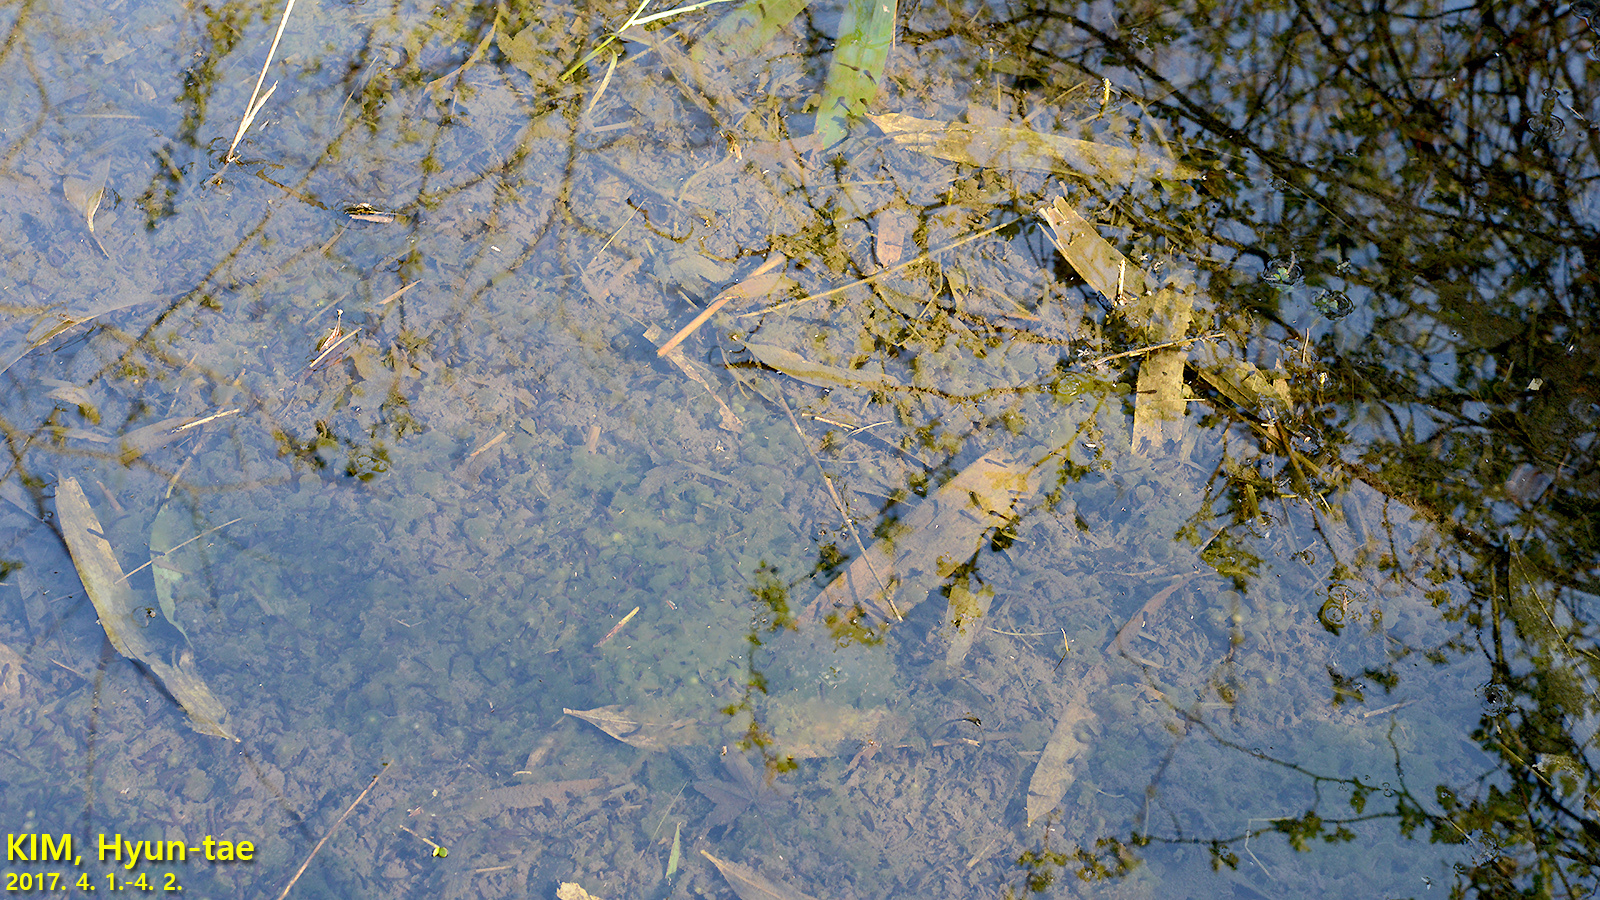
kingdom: Animalia
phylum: Chordata
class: Amphibia
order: Anura
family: Ranidae
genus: Rana
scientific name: Rana uenoi
